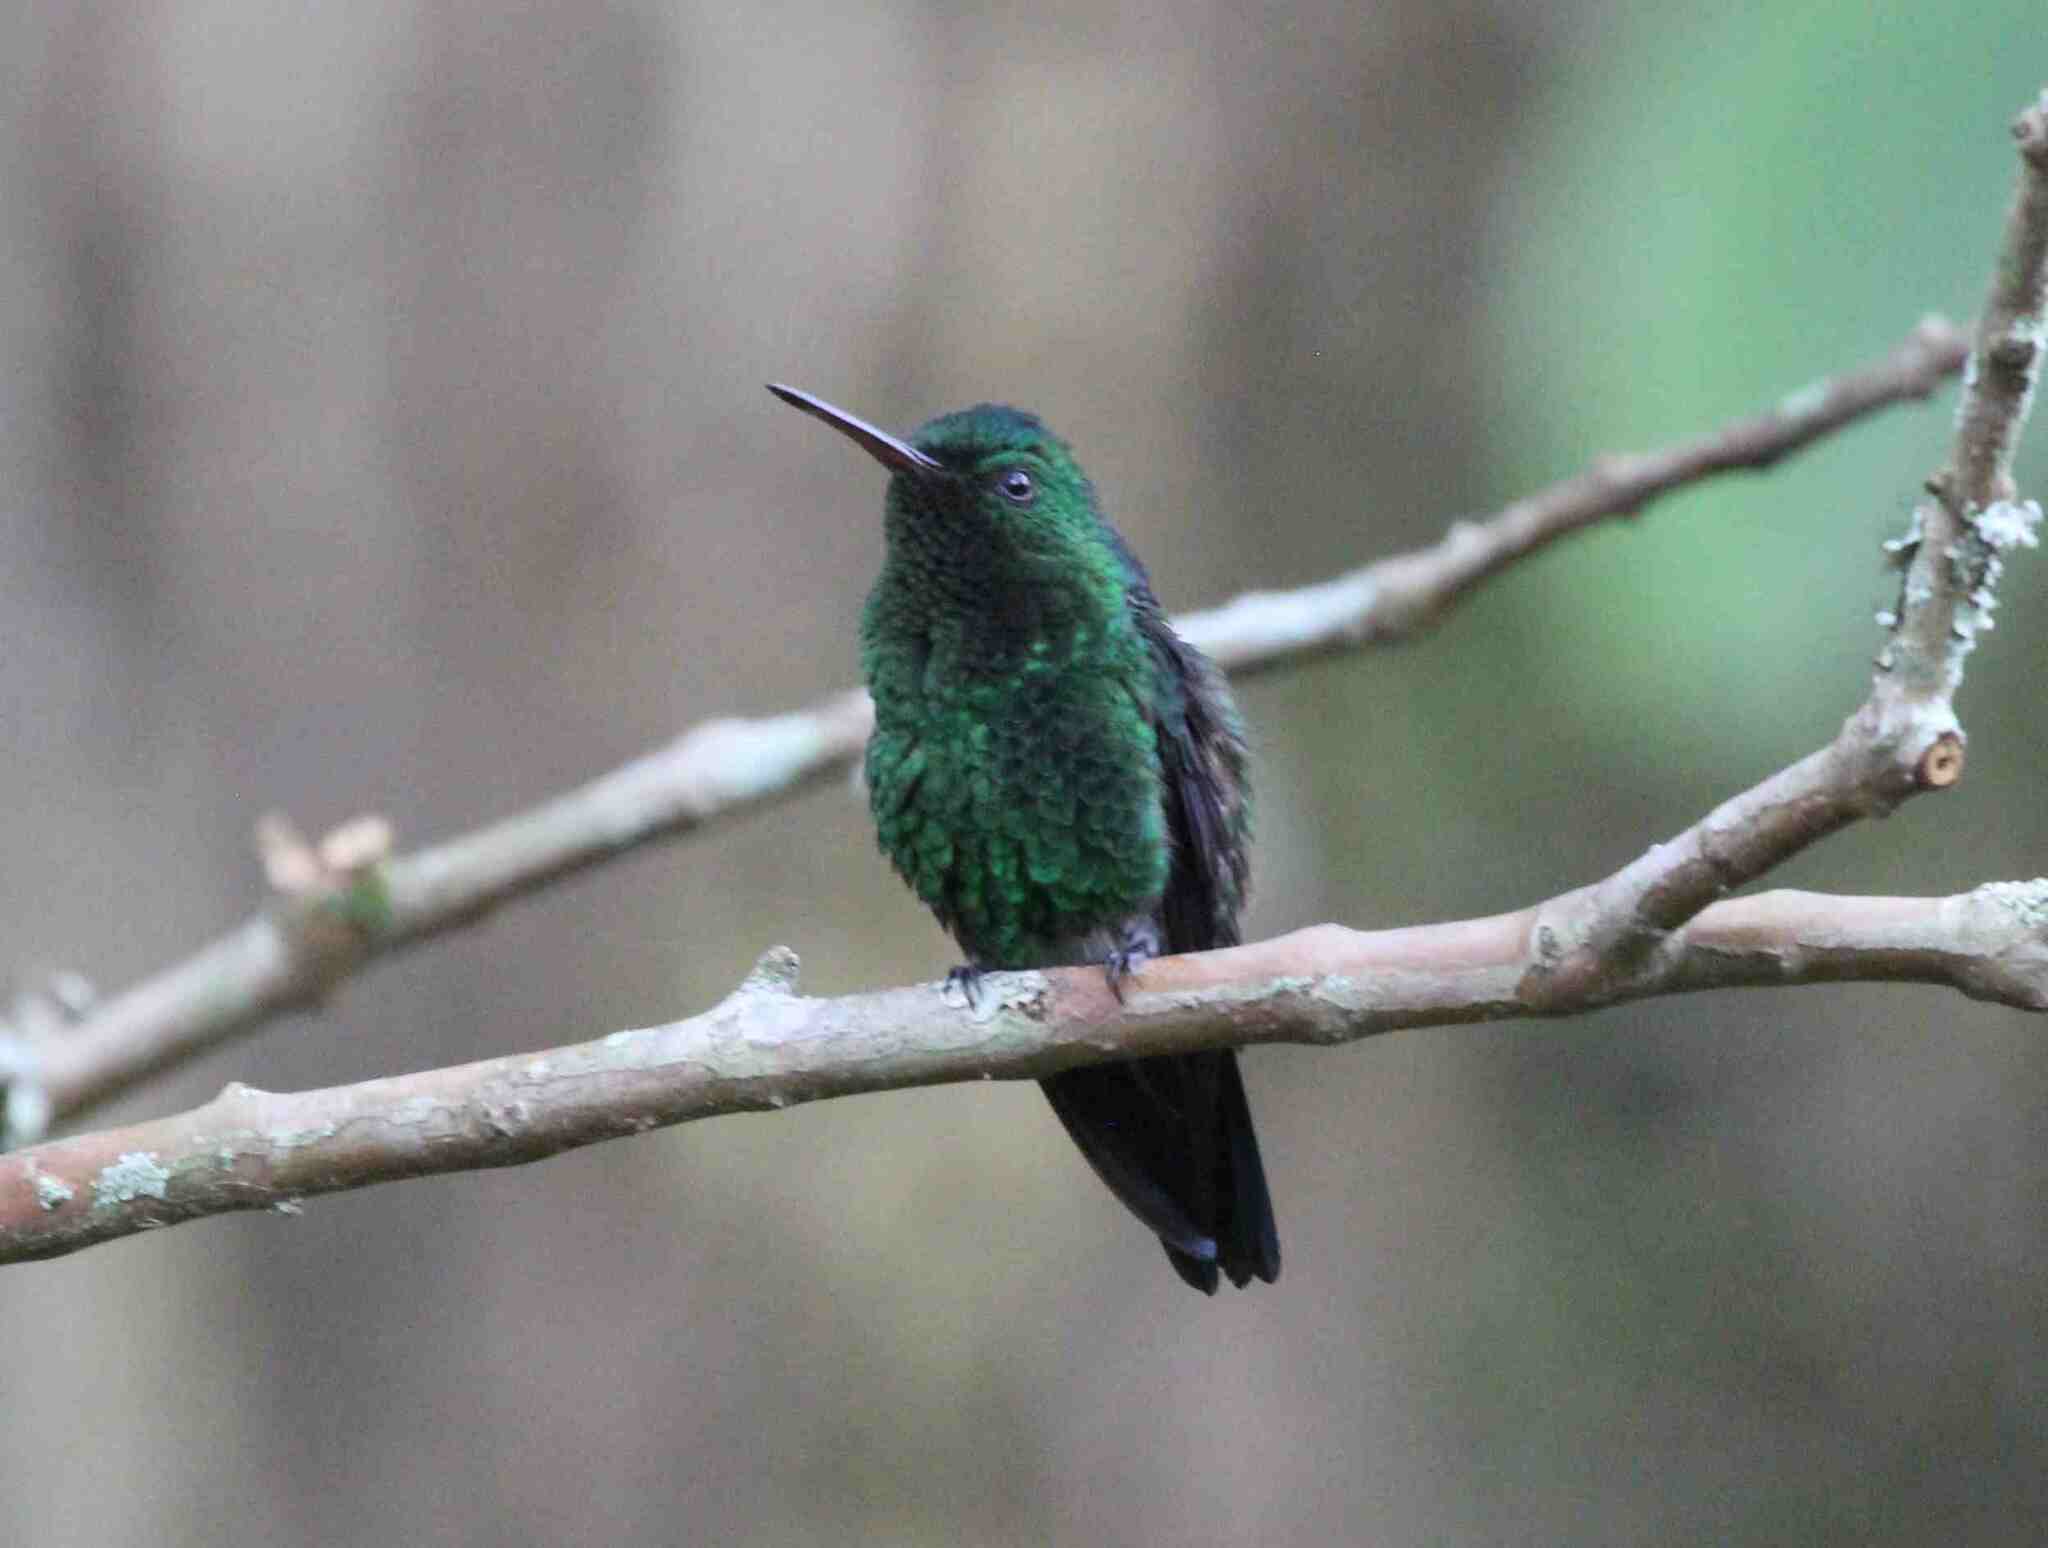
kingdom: Animalia
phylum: Chordata
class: Aves
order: Apodiformes
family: Trochilidae
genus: Saucerottia
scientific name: Saucerottia saucerottei
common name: Steely-vented hummingbird
